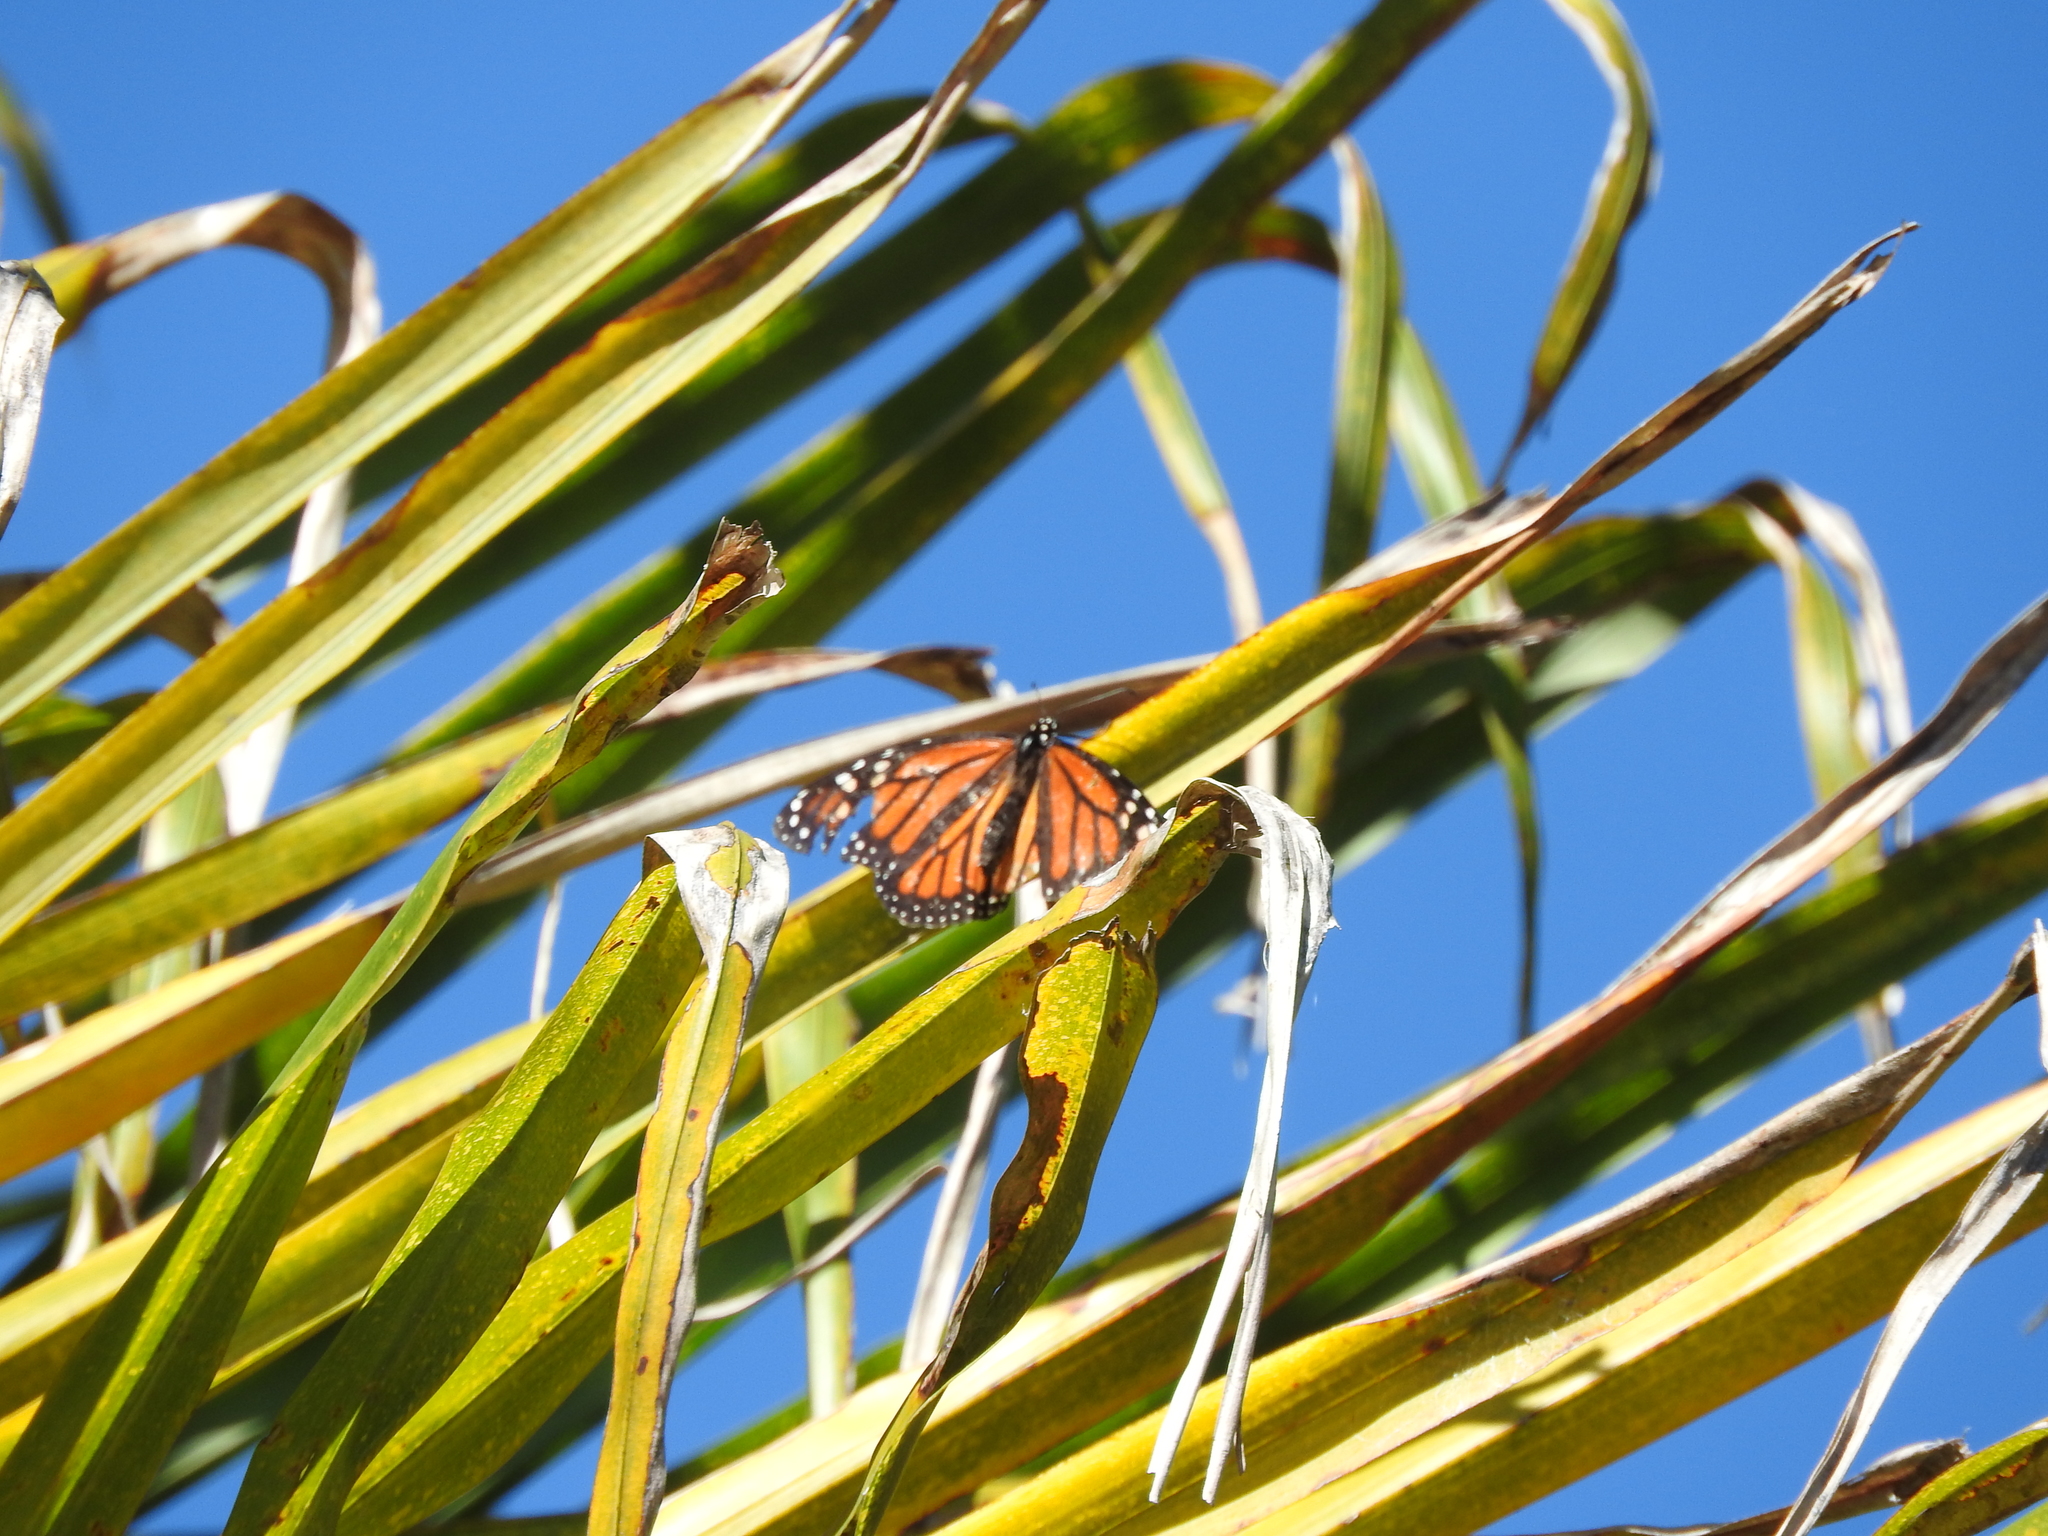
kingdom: Animalia
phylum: Arthropoda
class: Insecta
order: Lepidoptera
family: Nymphalidae
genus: Danaus
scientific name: Danaus plexippus
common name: Monarch
